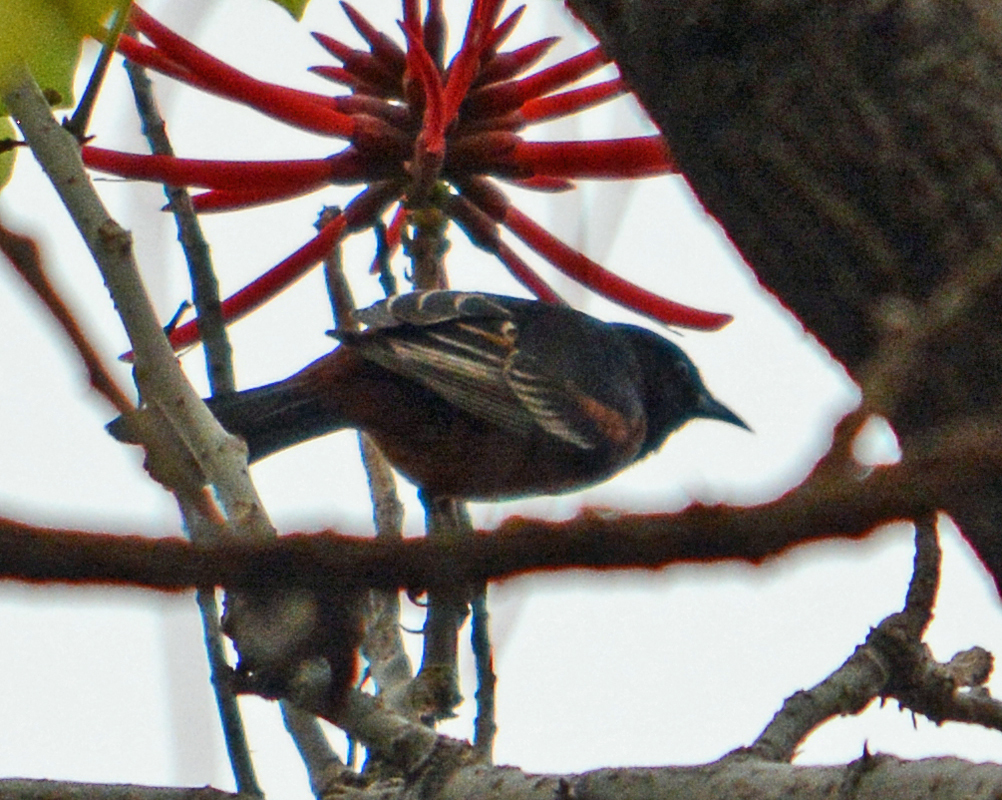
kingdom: Animalia
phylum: Chordata
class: Aves
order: Passeriformes
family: Icteridae
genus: Icterus
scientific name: Icterus spurius
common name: Orchard oriole
